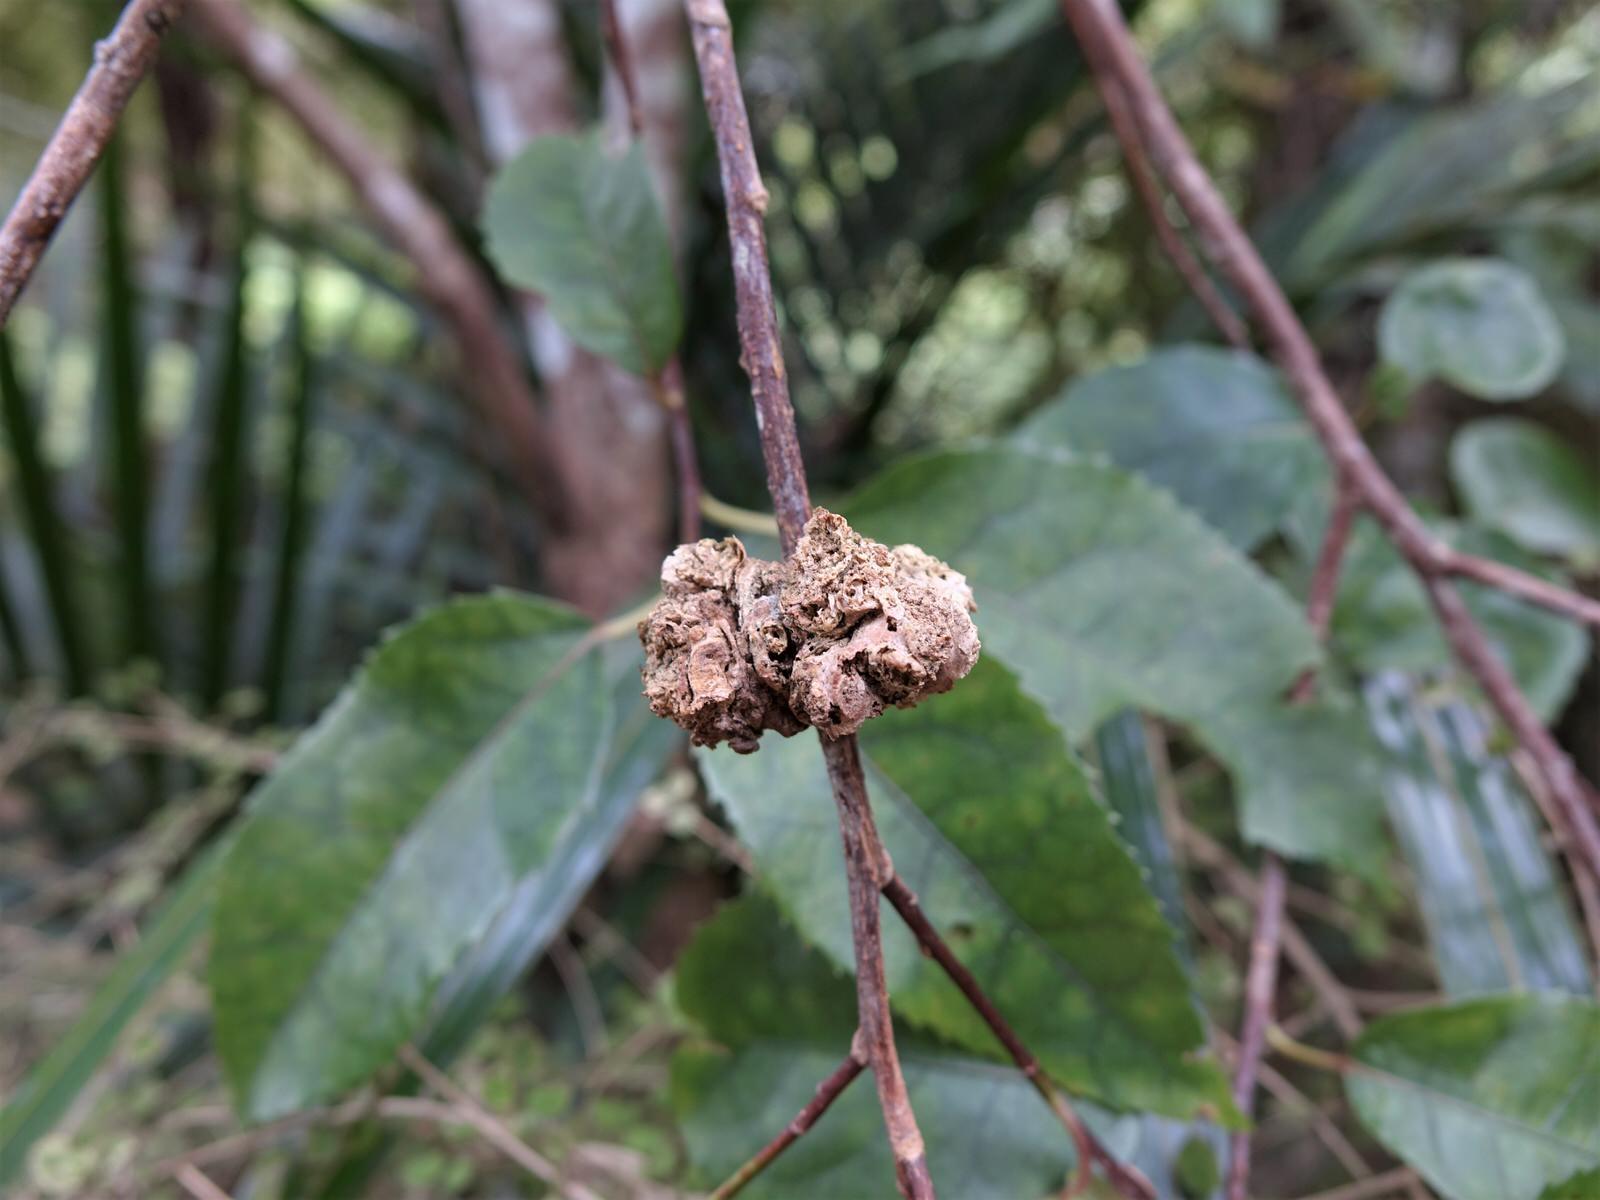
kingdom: Animalia
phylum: Arthropoda
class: Arachnida
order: Trombidiformes
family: Eriophyidae
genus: Eriophyes
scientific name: Eriophyes hoheriae
